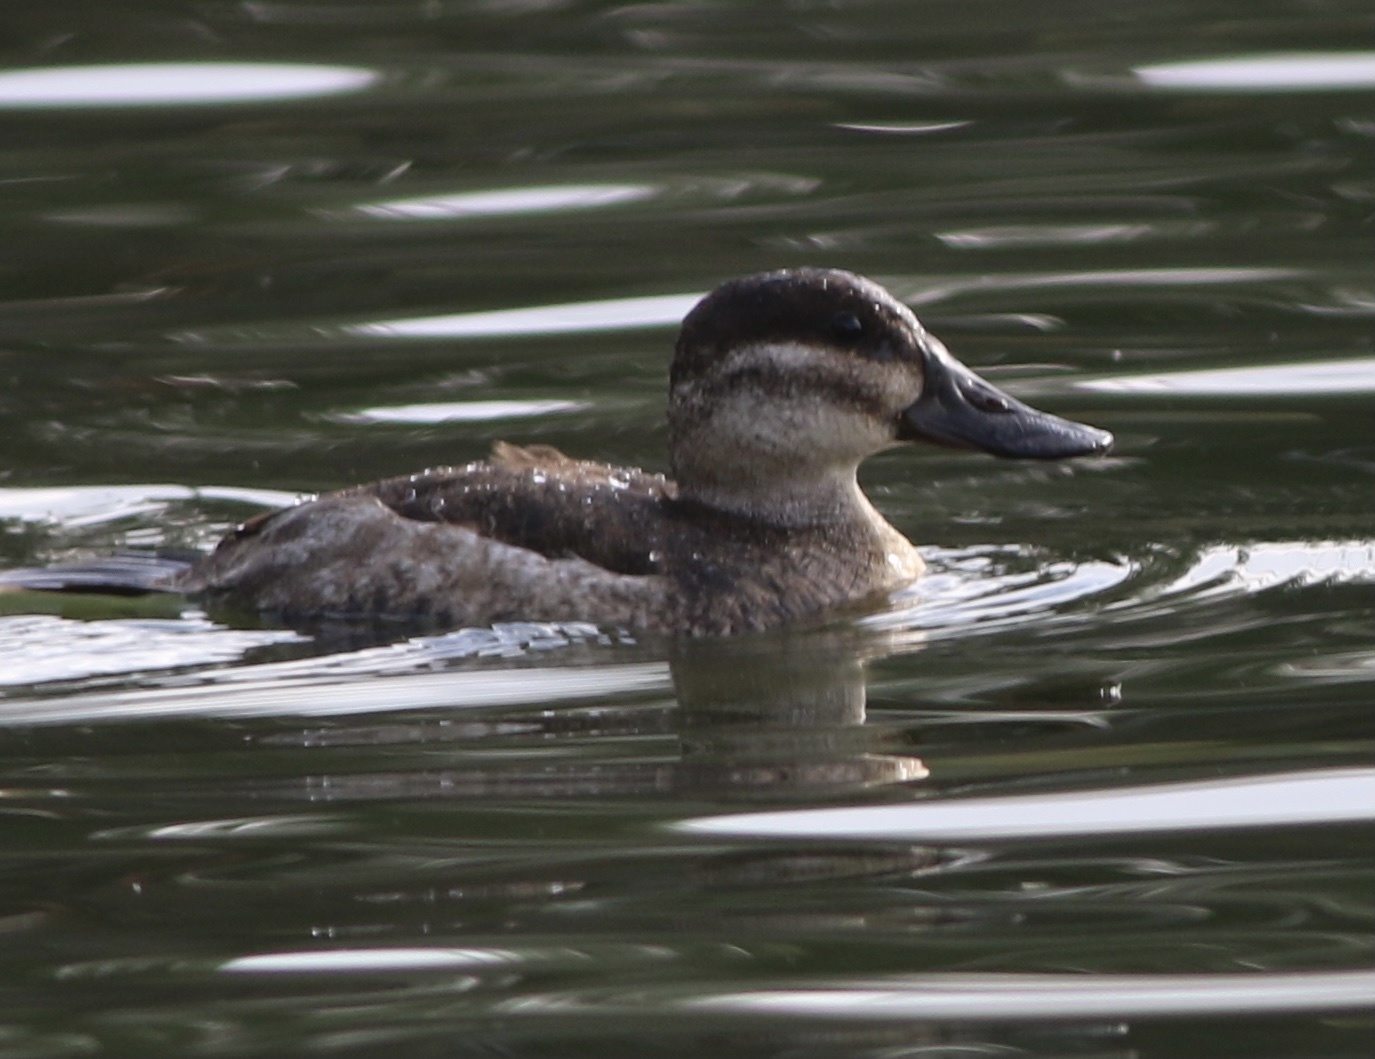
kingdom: Animalia
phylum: Chordata
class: Aves
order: Anseriformes
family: Anatidae
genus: Oxyura
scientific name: Oxyura jamaicensis
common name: Ruddy duck
